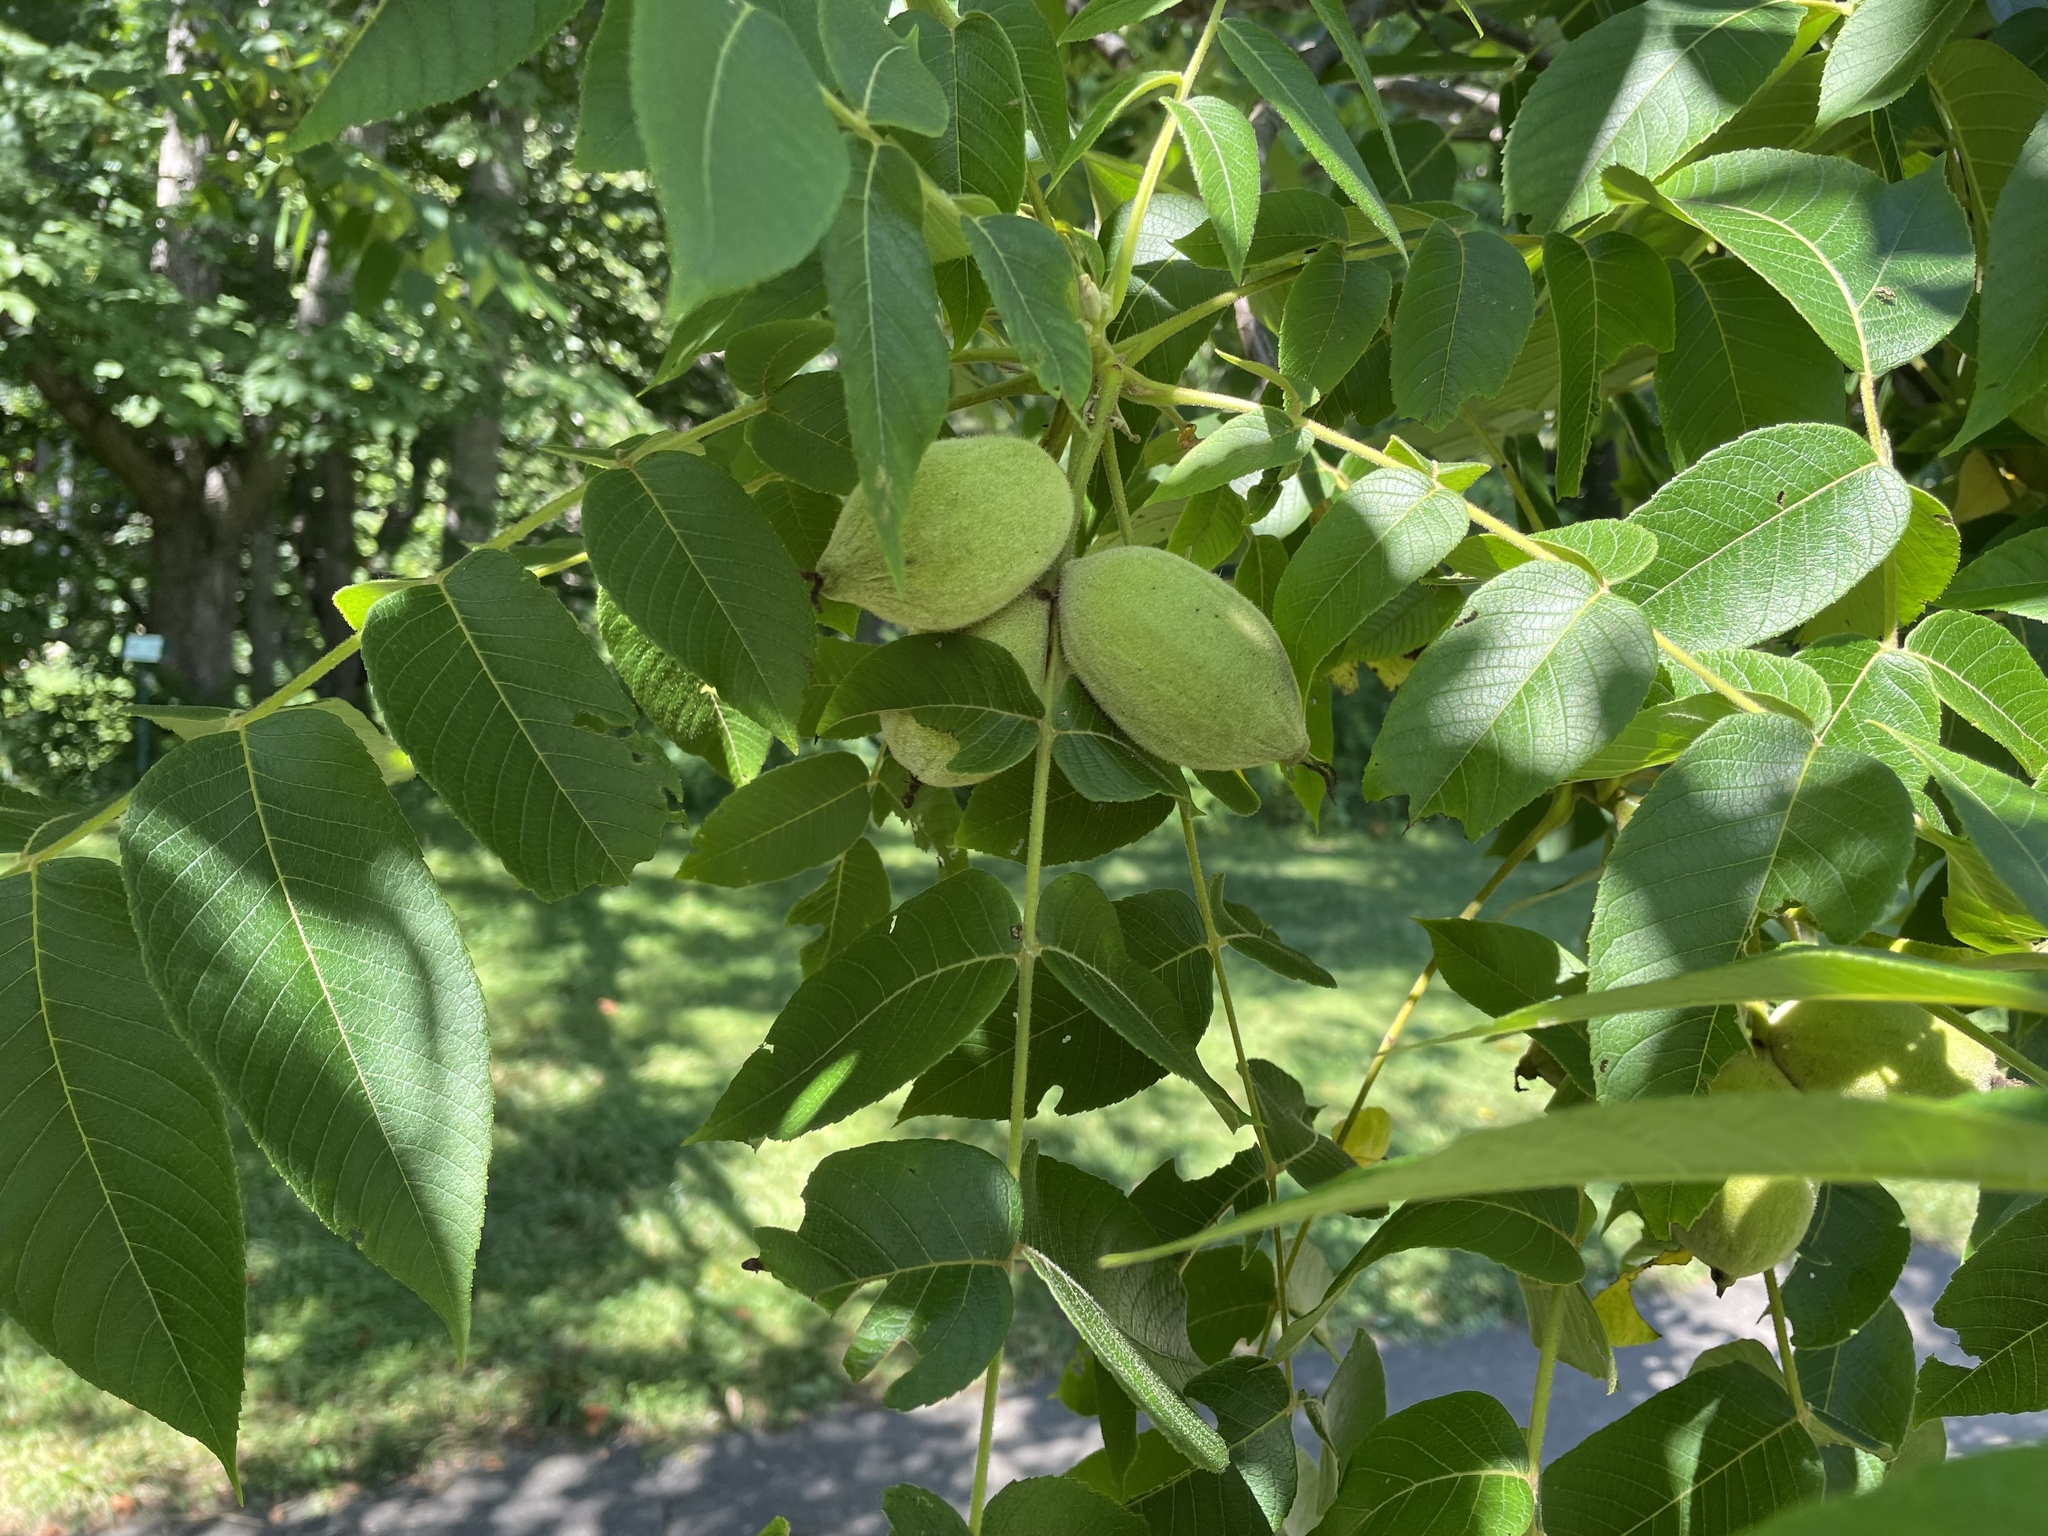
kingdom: Plantae
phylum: Tracheophyta
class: Magnoliopsida
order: Fagales
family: Juglandaceae
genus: Juglans
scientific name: Juglans cinerea
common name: Butternut
